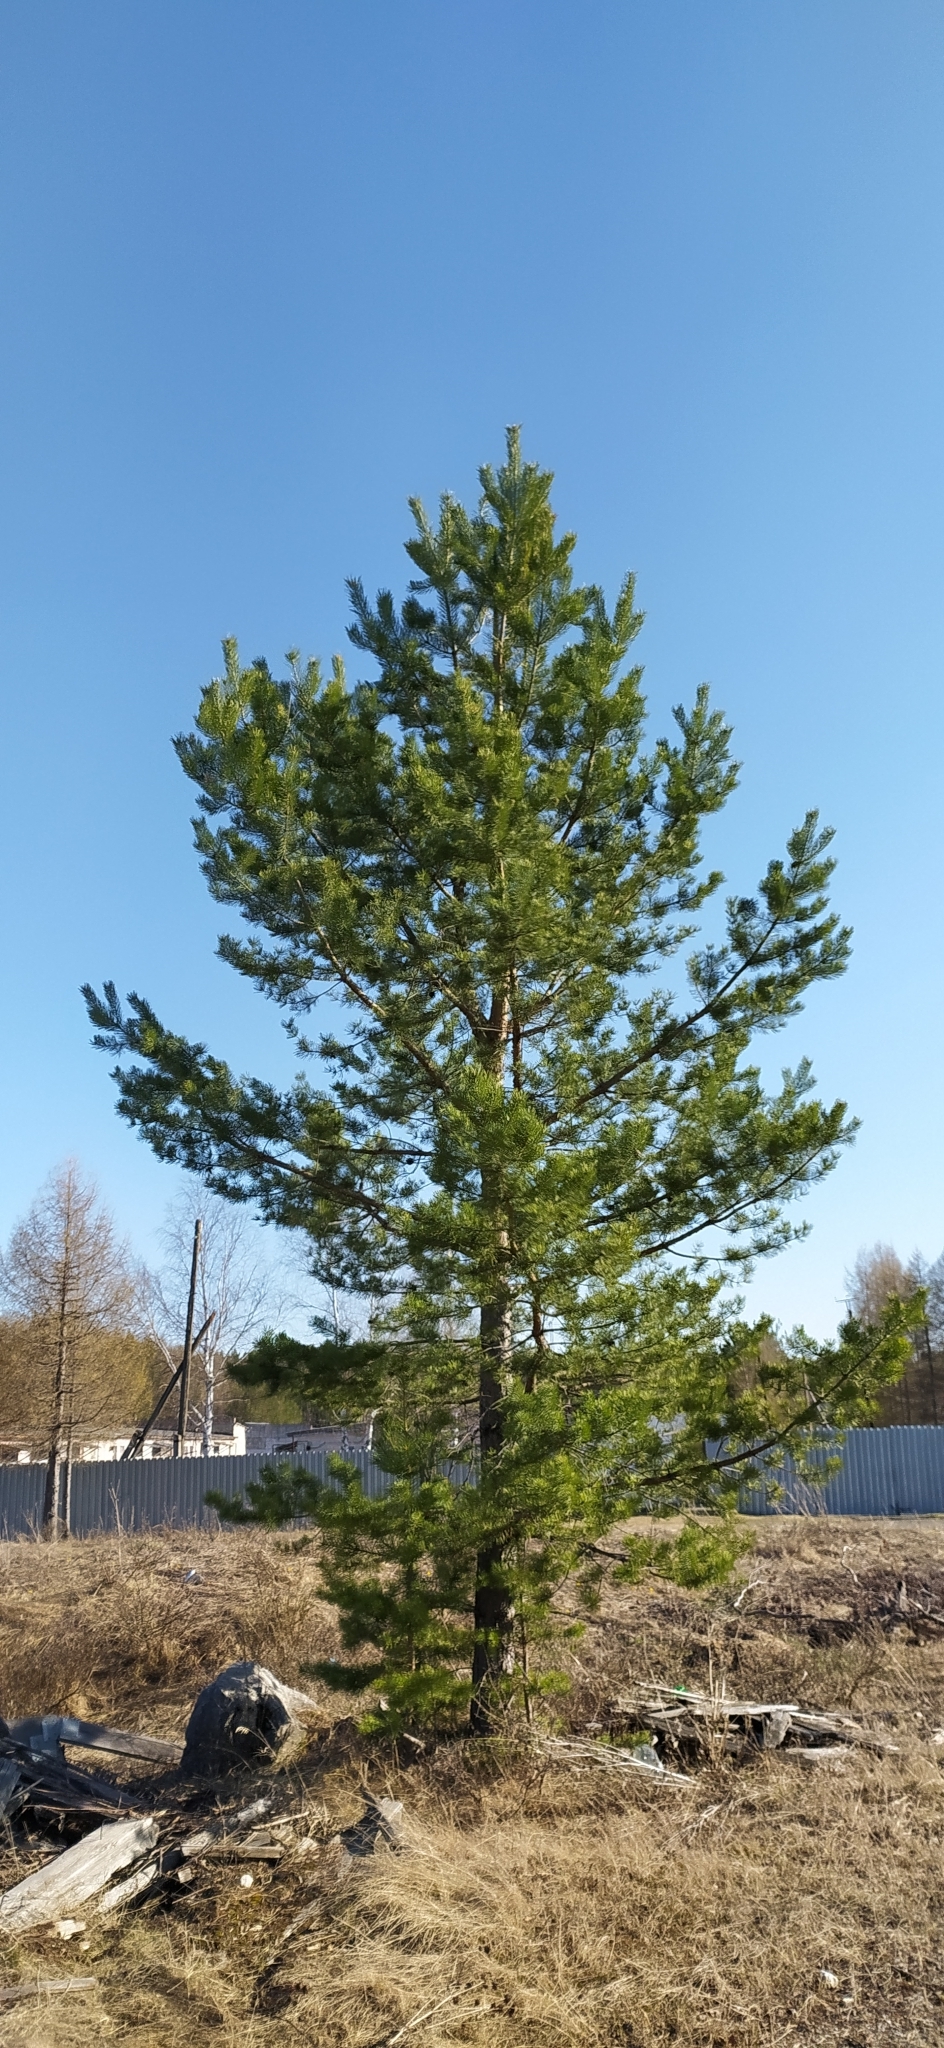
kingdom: Plantae
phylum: Tracheophyta
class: Pinopsida
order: Pinales
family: Pinaceae
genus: Pinus
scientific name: Pinus sylvestris
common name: Scots pine
